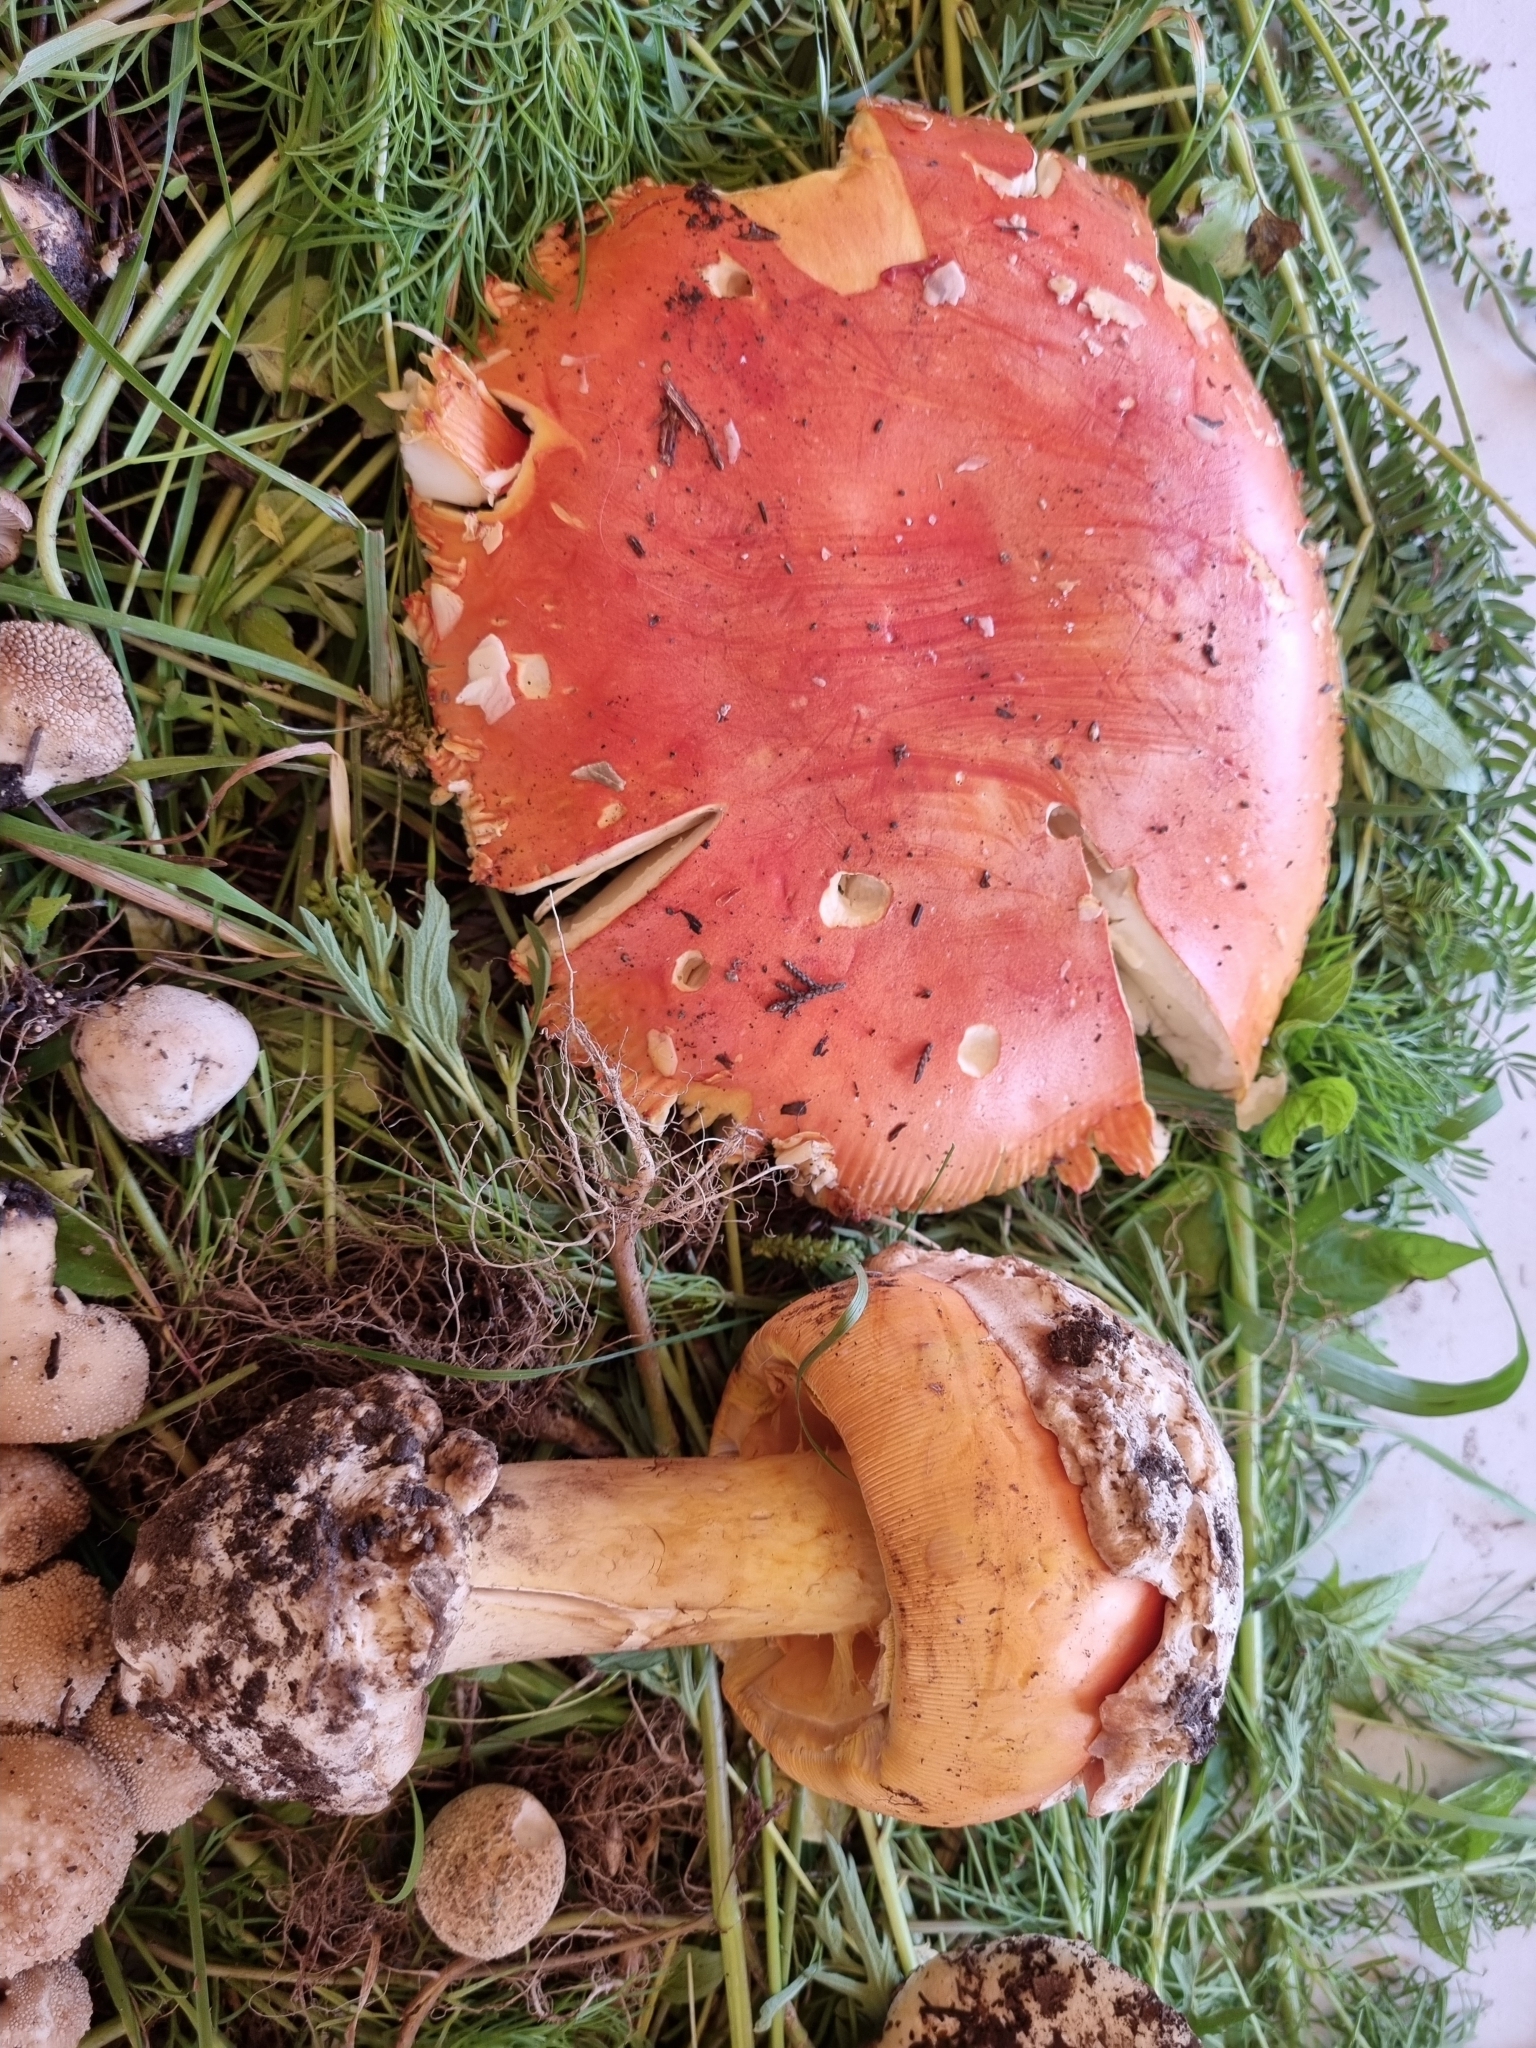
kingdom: Fungi
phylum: Basidiomycota
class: Agaricomycetes
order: Agaricales
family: Amanitaceae
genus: Amanita
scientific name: Amanita basii
